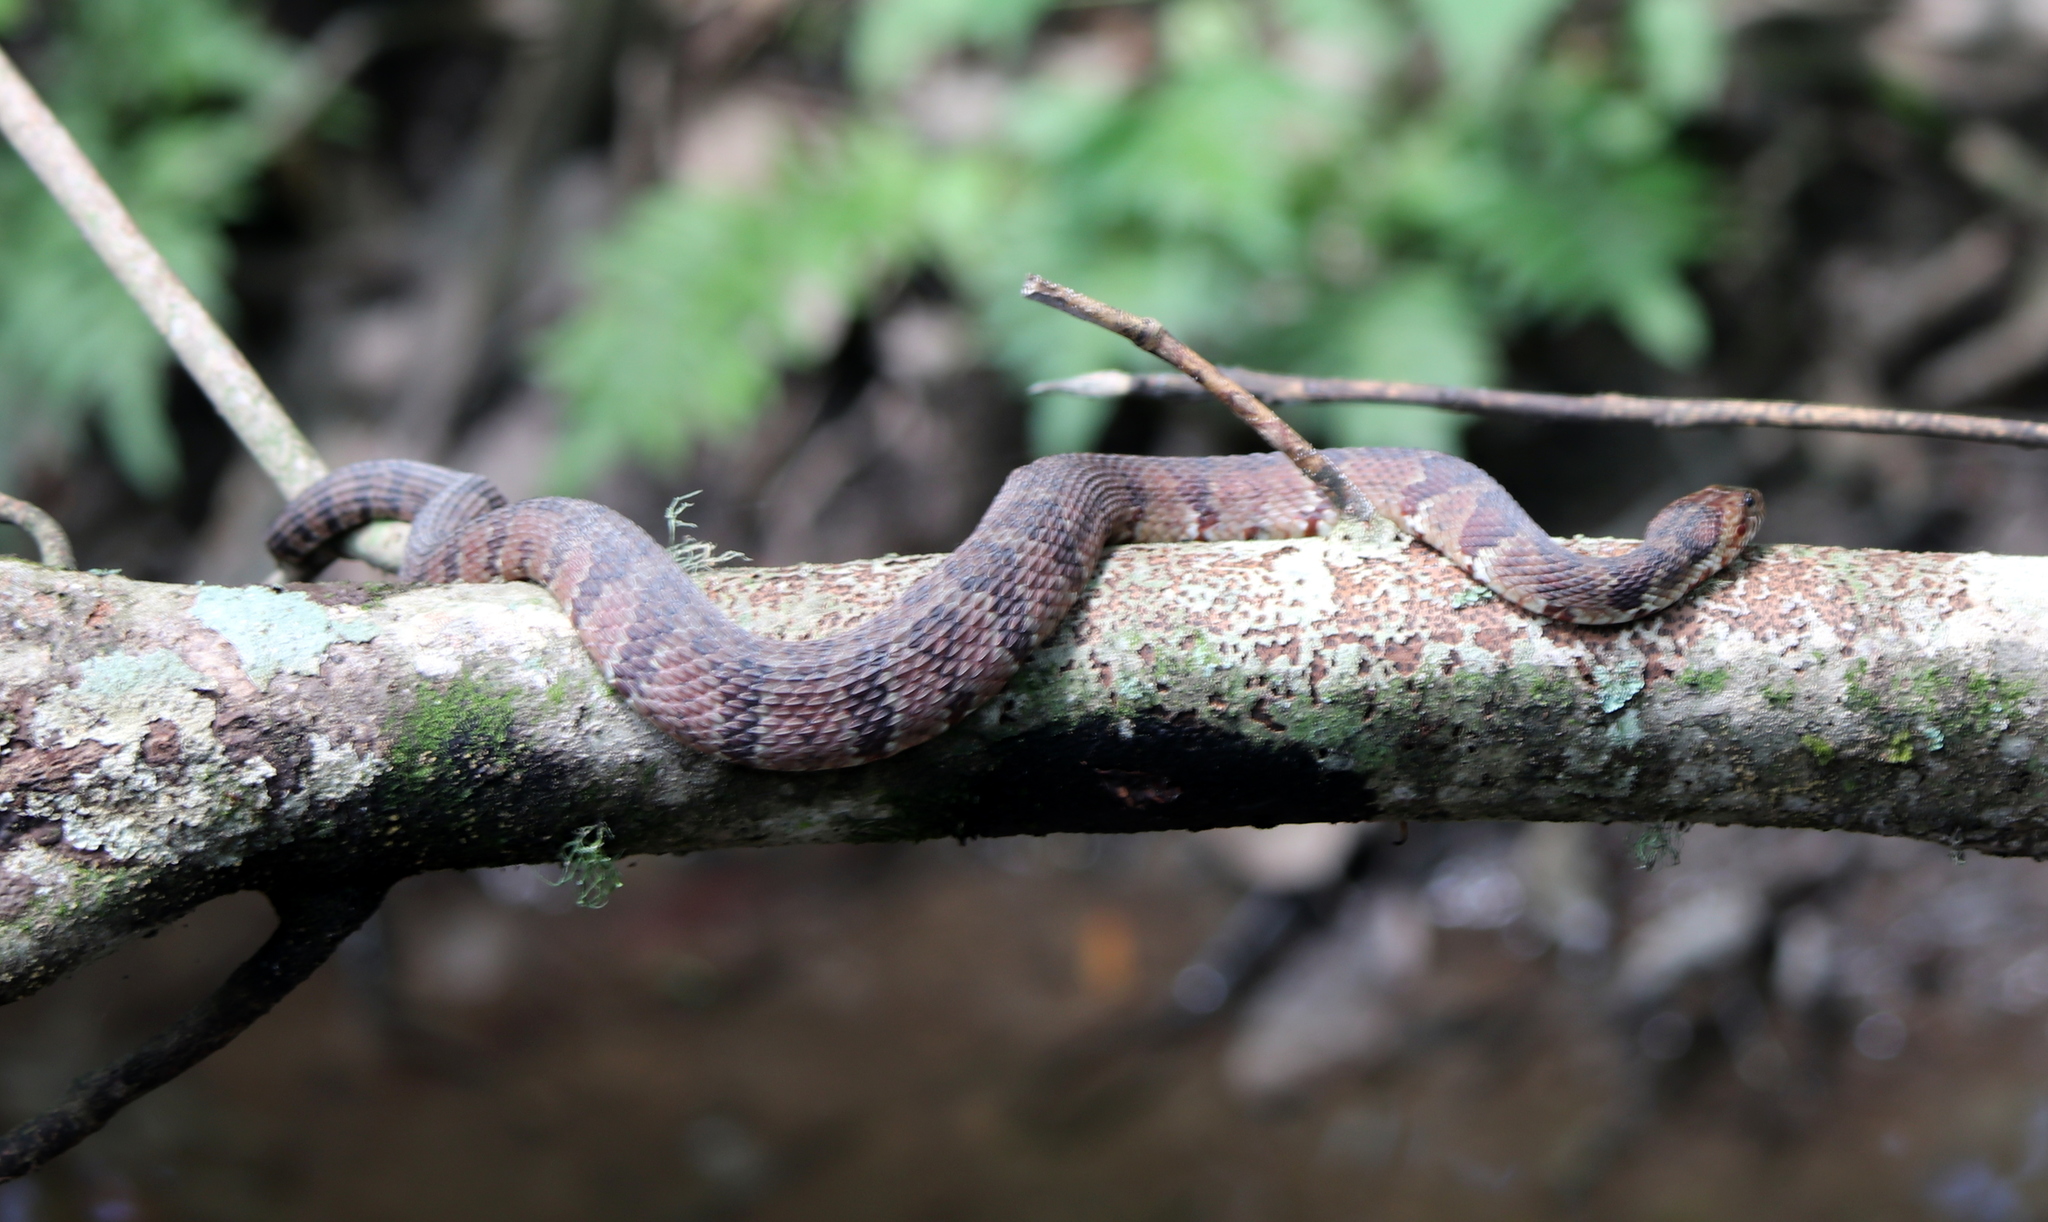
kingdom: Animalia
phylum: Chordata
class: Squamata
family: Colubridae
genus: Nerodia
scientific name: Nerodia fasciata
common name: Southern water snake
